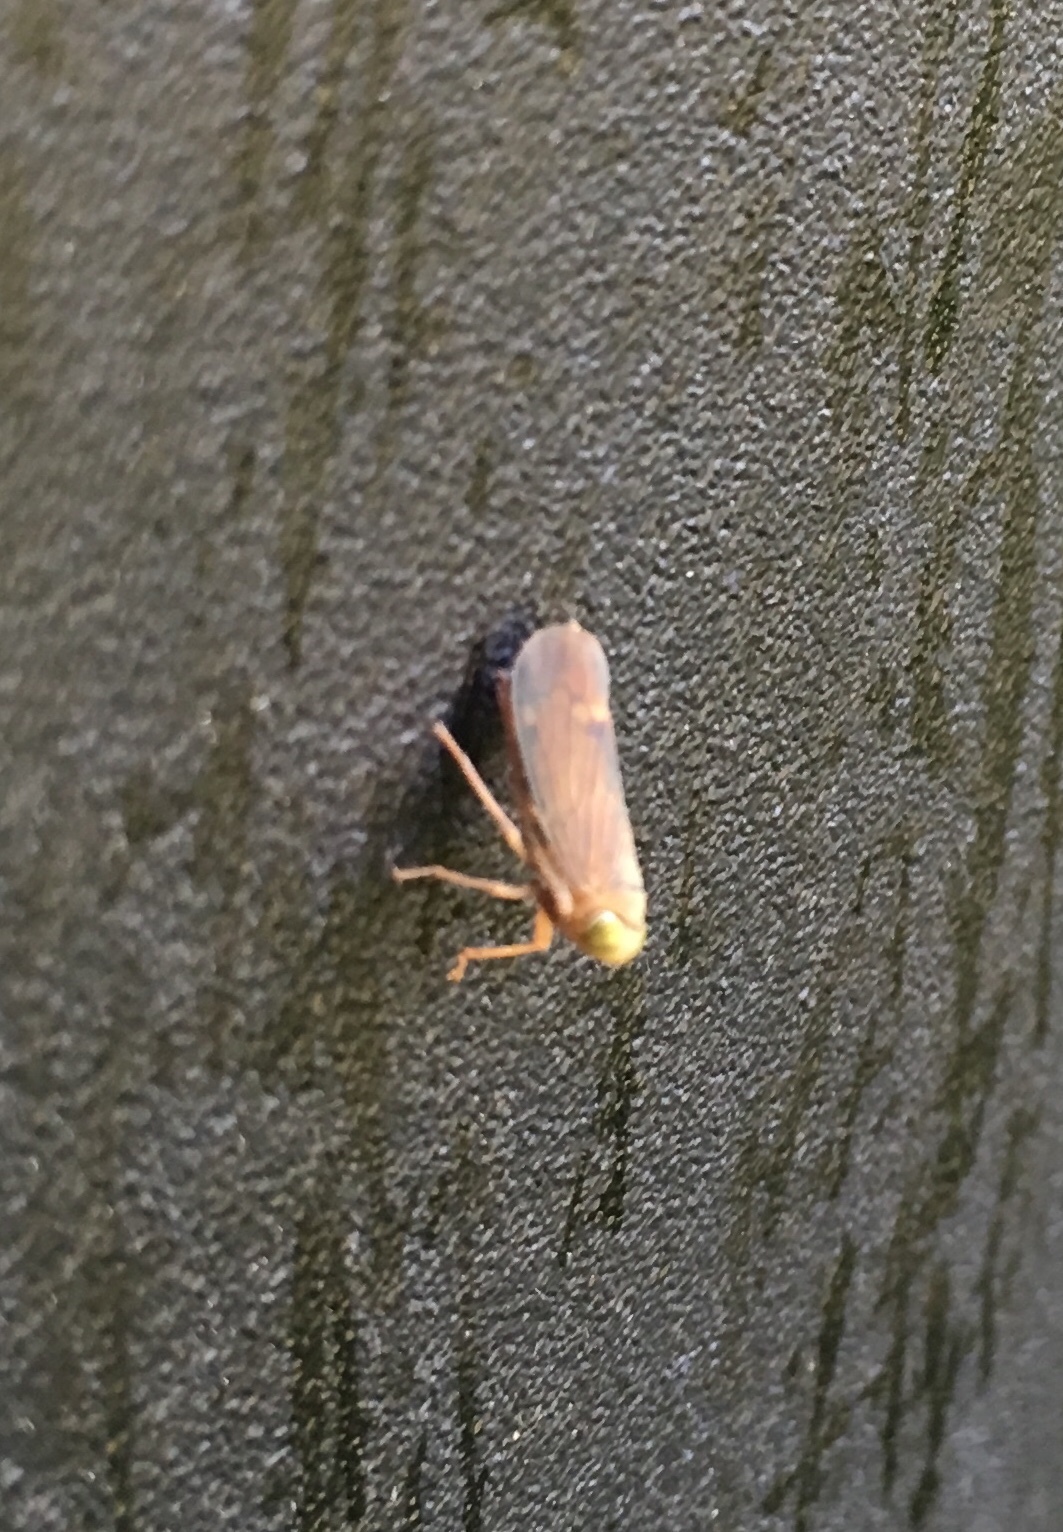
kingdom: Animalia
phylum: Arthropoda
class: Insecta
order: Hemiptera
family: Cicadellidae
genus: Jikradia
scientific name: Jikradia olitoria
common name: Coppery leafhopper
